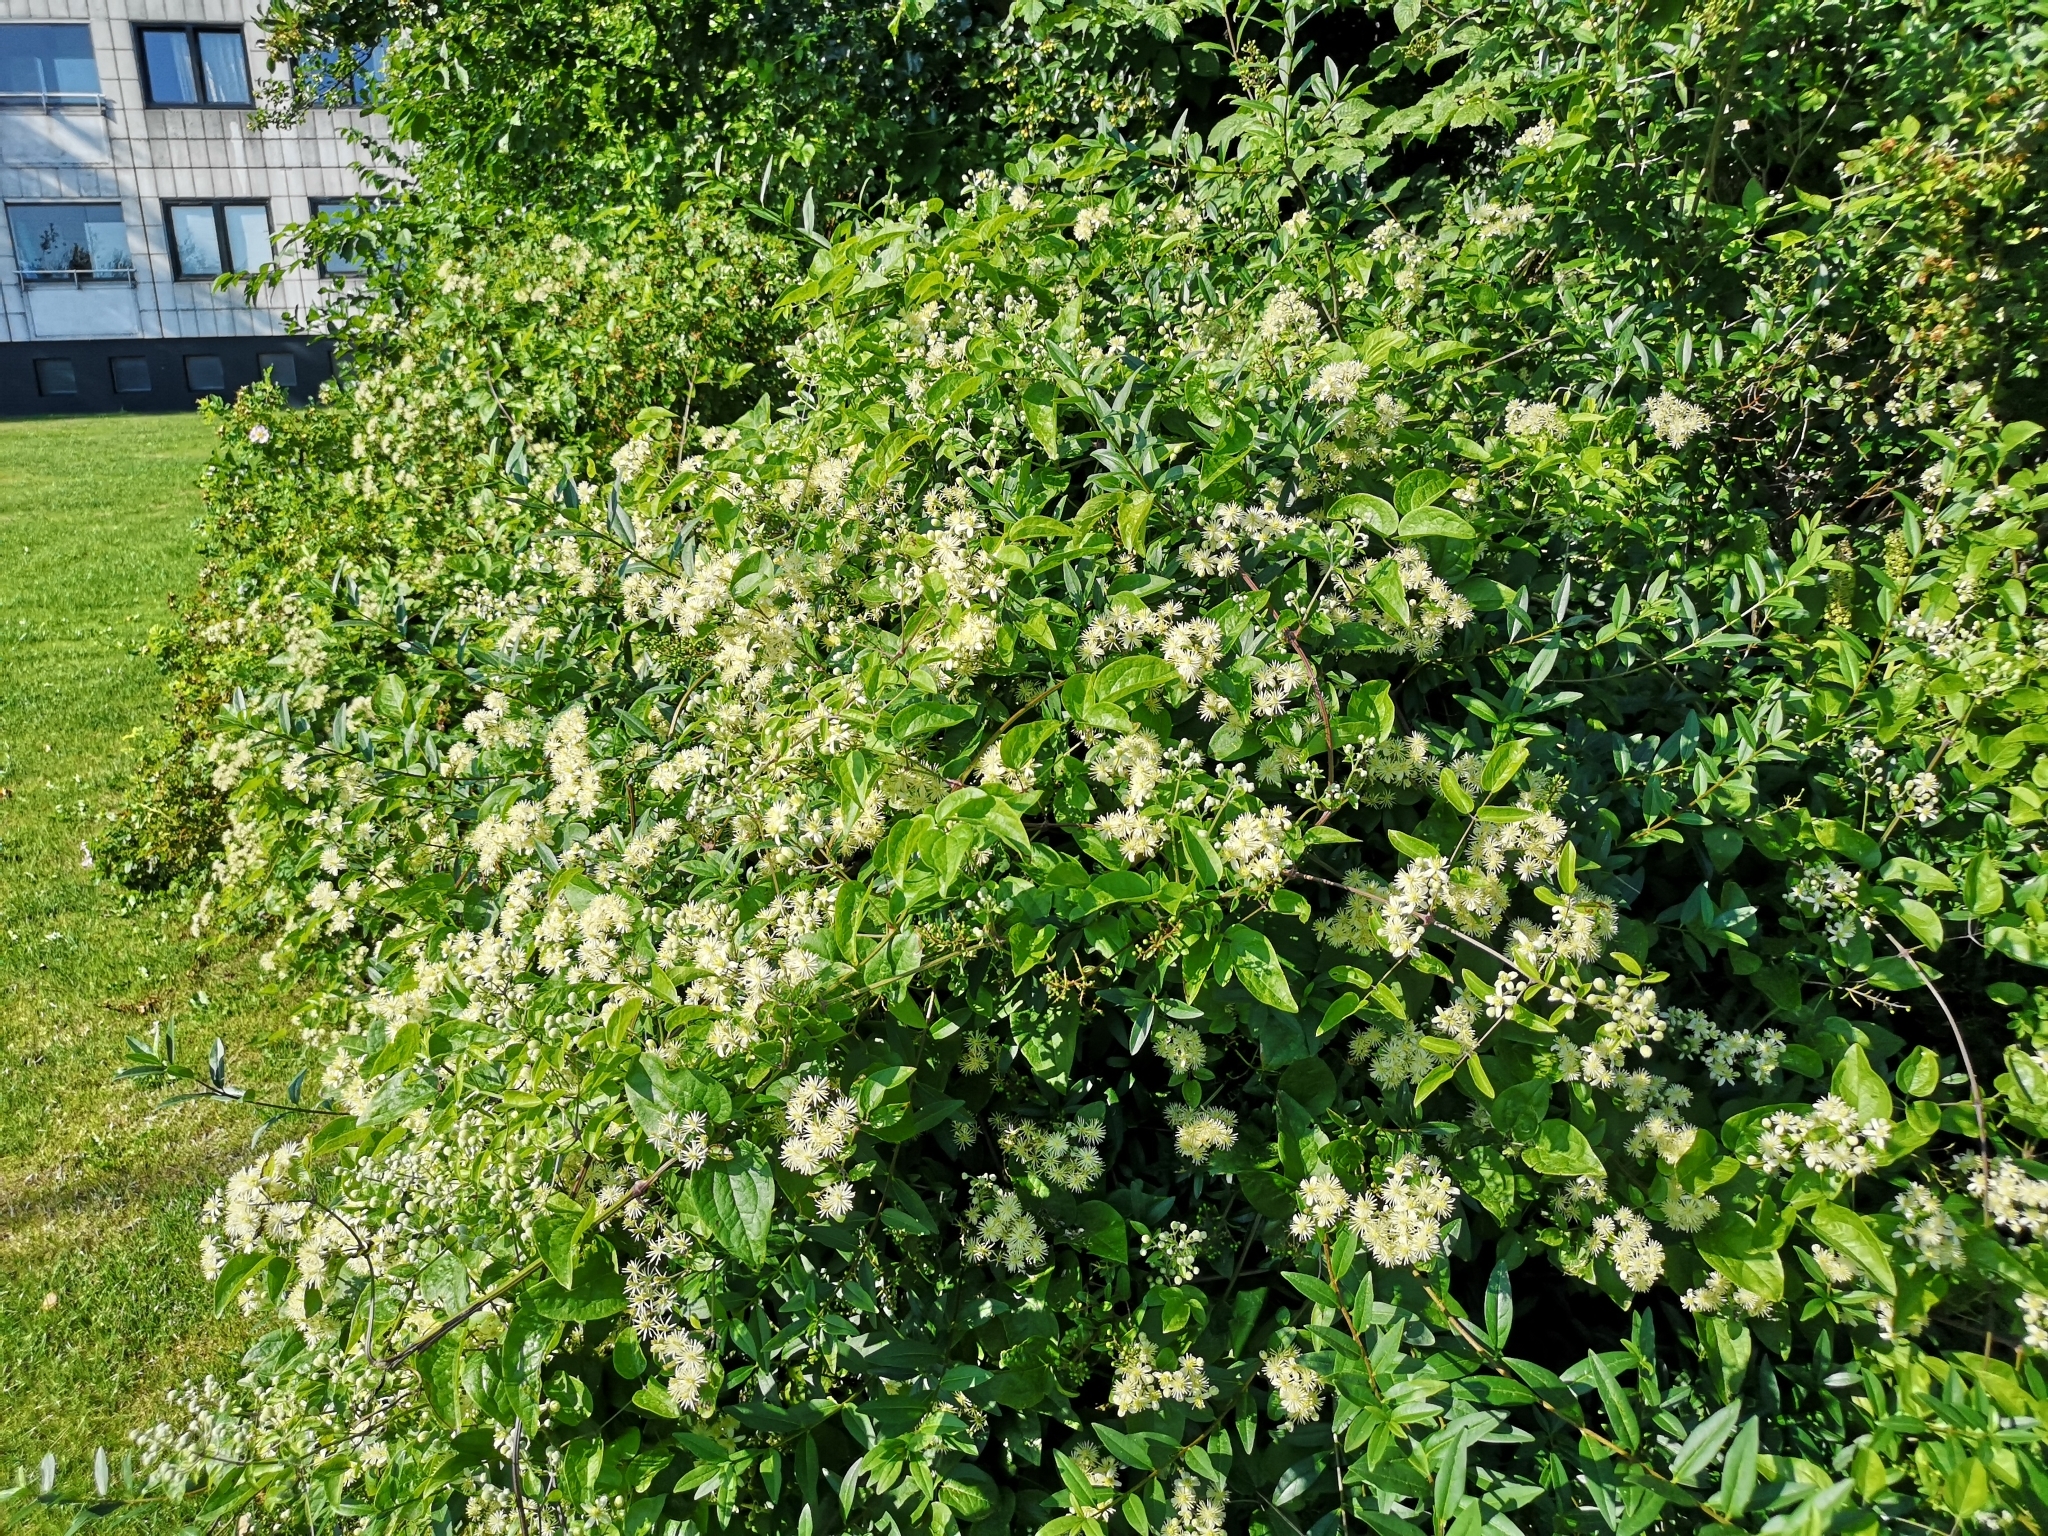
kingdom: Plantae
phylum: Tracheophyta
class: Magnoliopsida
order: Ranunculales
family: Ranunculaceae
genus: Clematis
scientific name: Clematis vitalba
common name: Evergreen clematis
